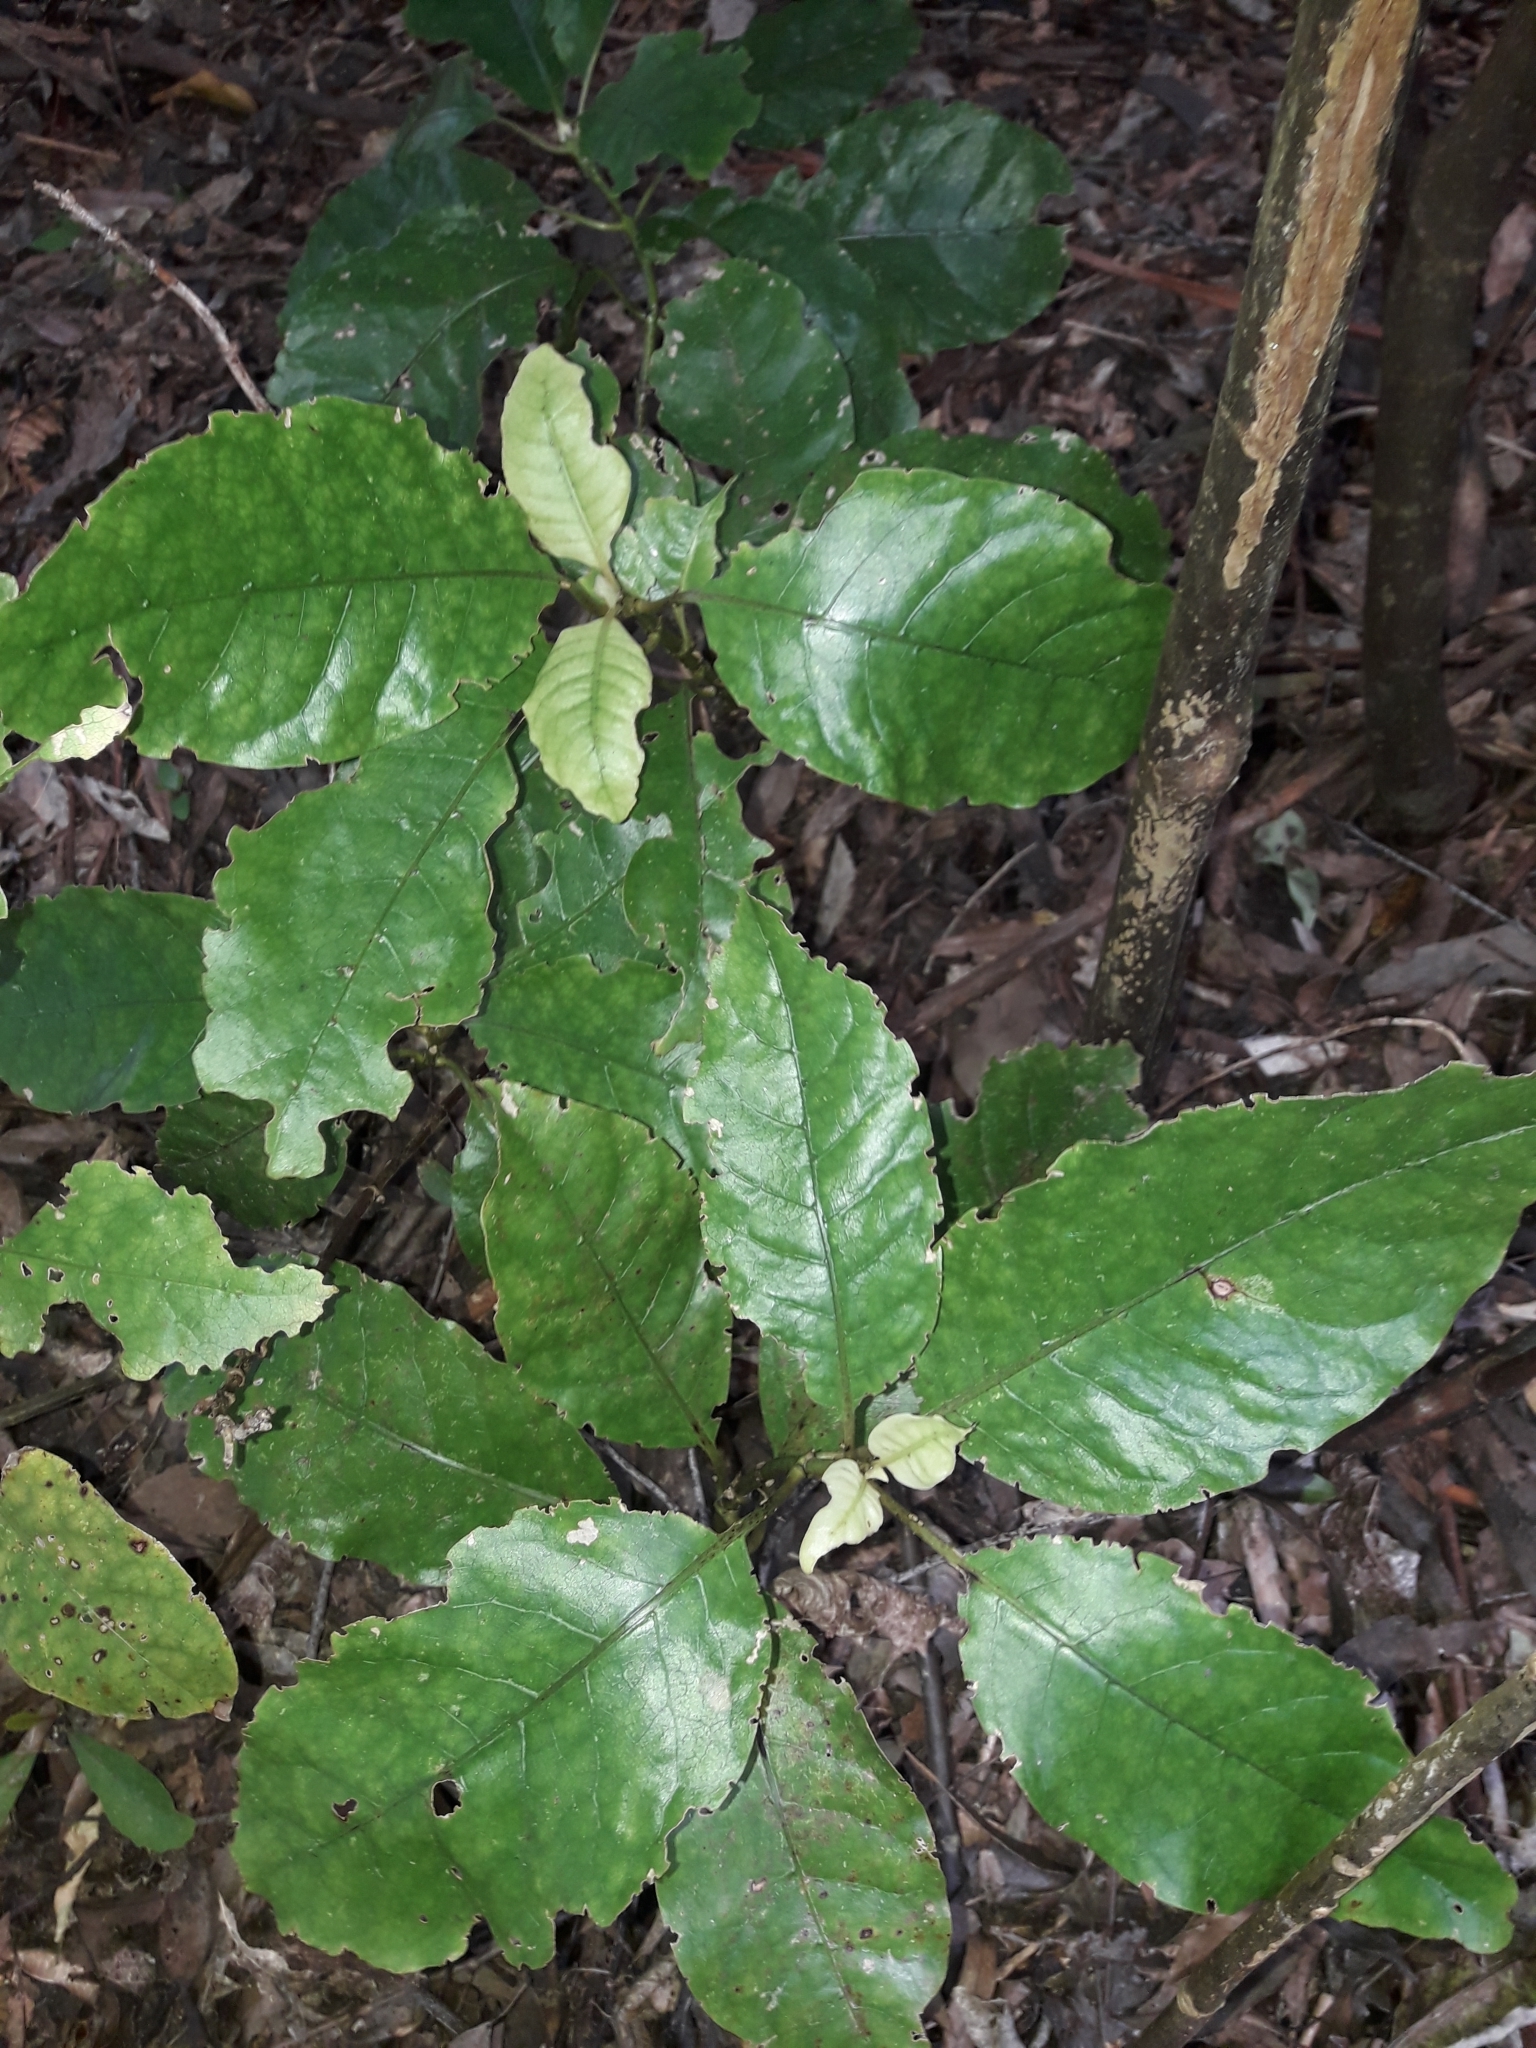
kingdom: Plantae
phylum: Tracheophyta
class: Magnoliopsida
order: Gentianales
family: Rubiaceae
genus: Coprosma
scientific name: Coprosma autumnalis
